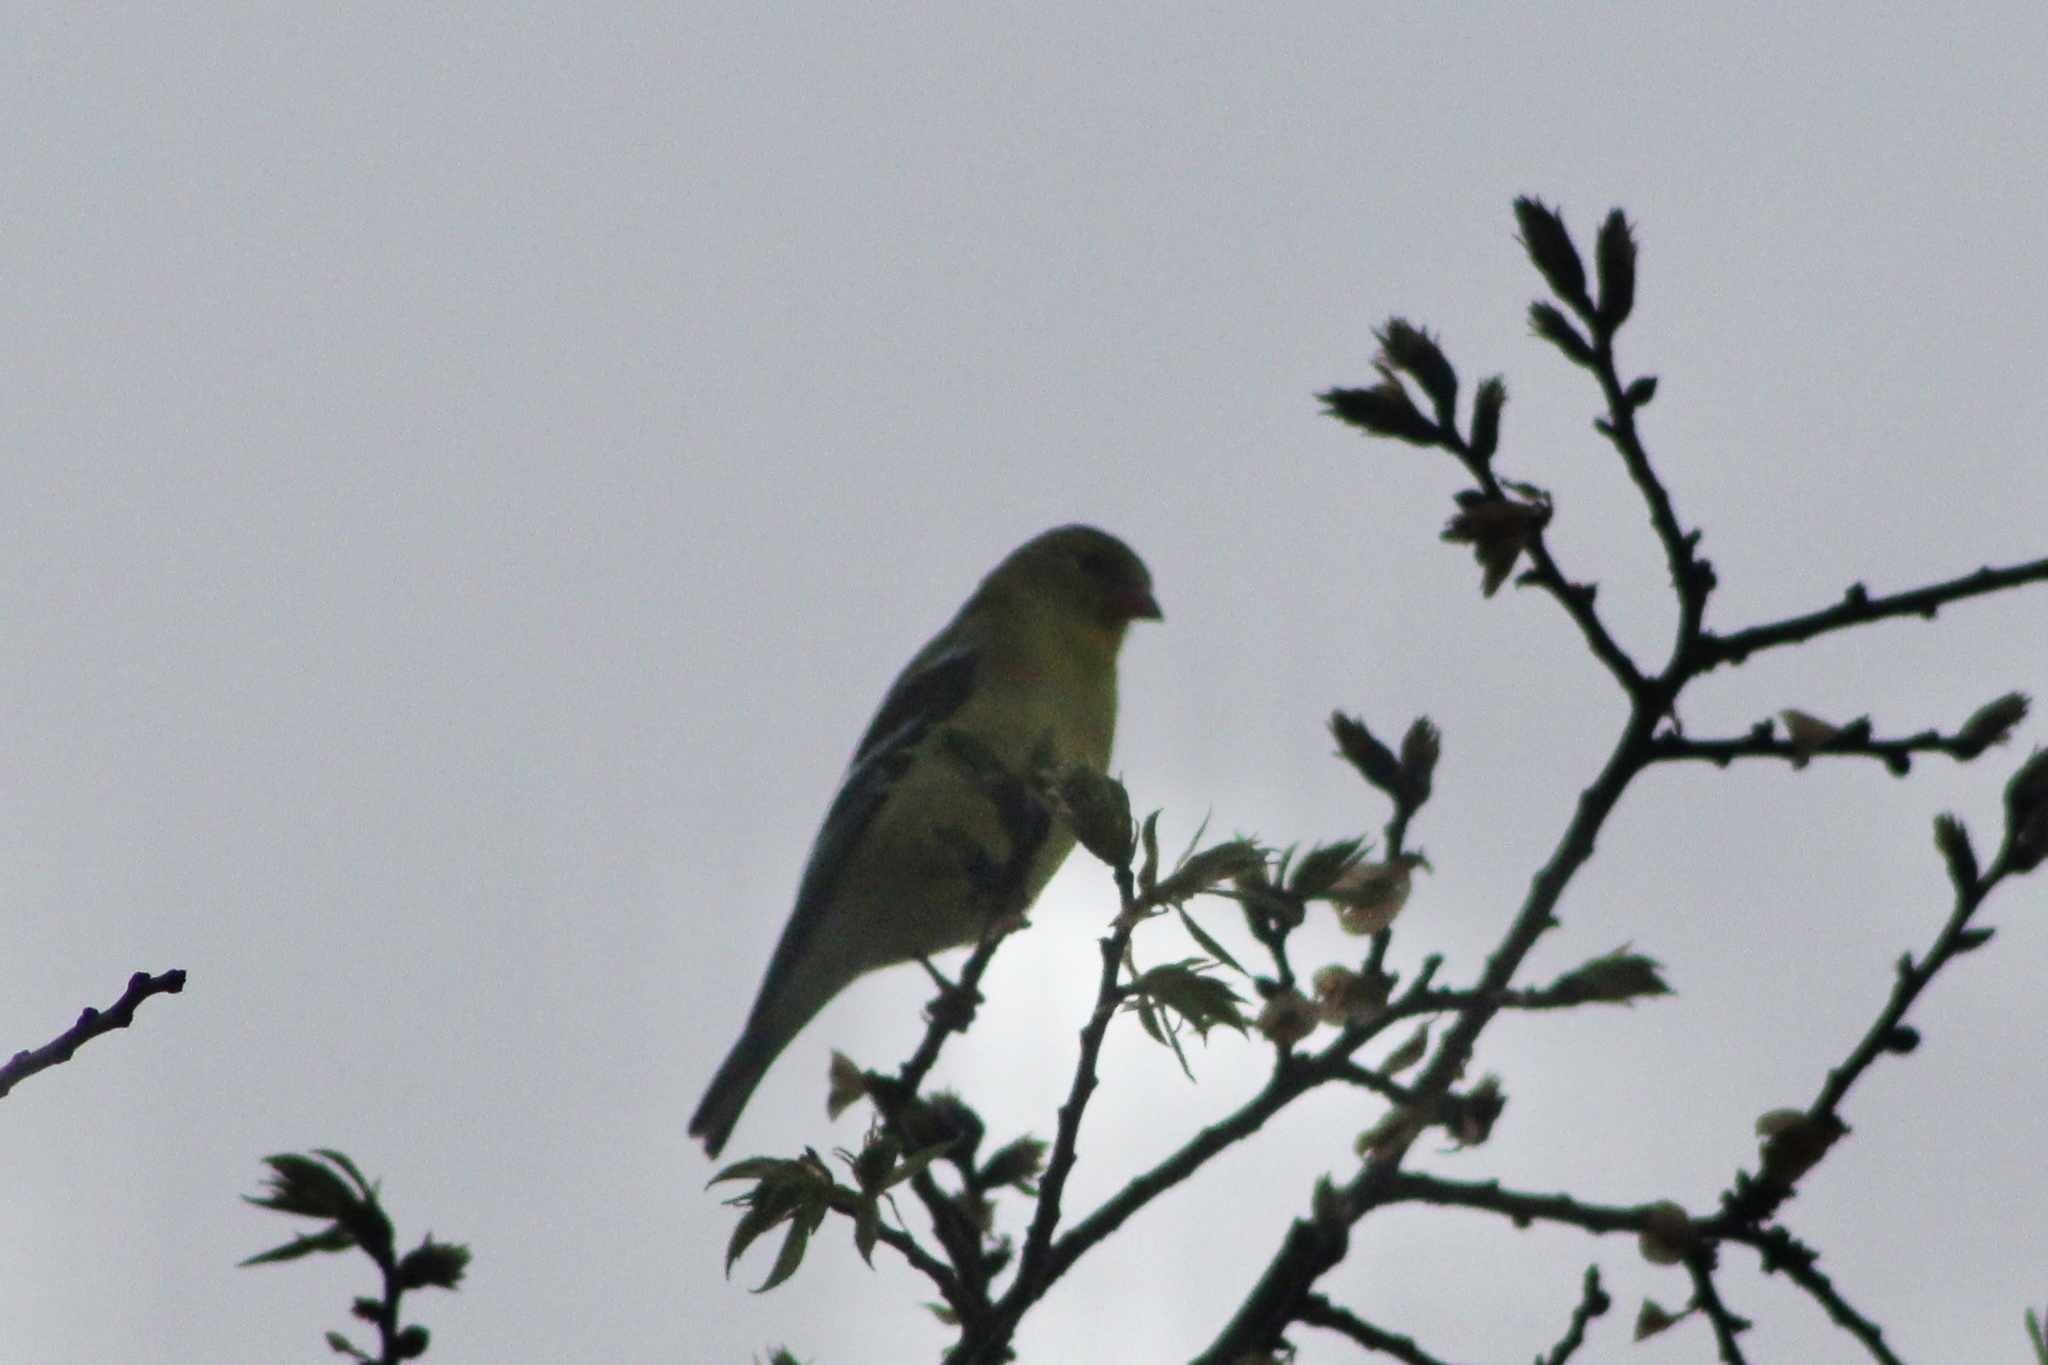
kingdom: Animalia
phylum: Chordata
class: Aves
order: Passeriformes
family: Fringillidae
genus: Spinus
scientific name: Spinus tristis
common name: American goldfinch
